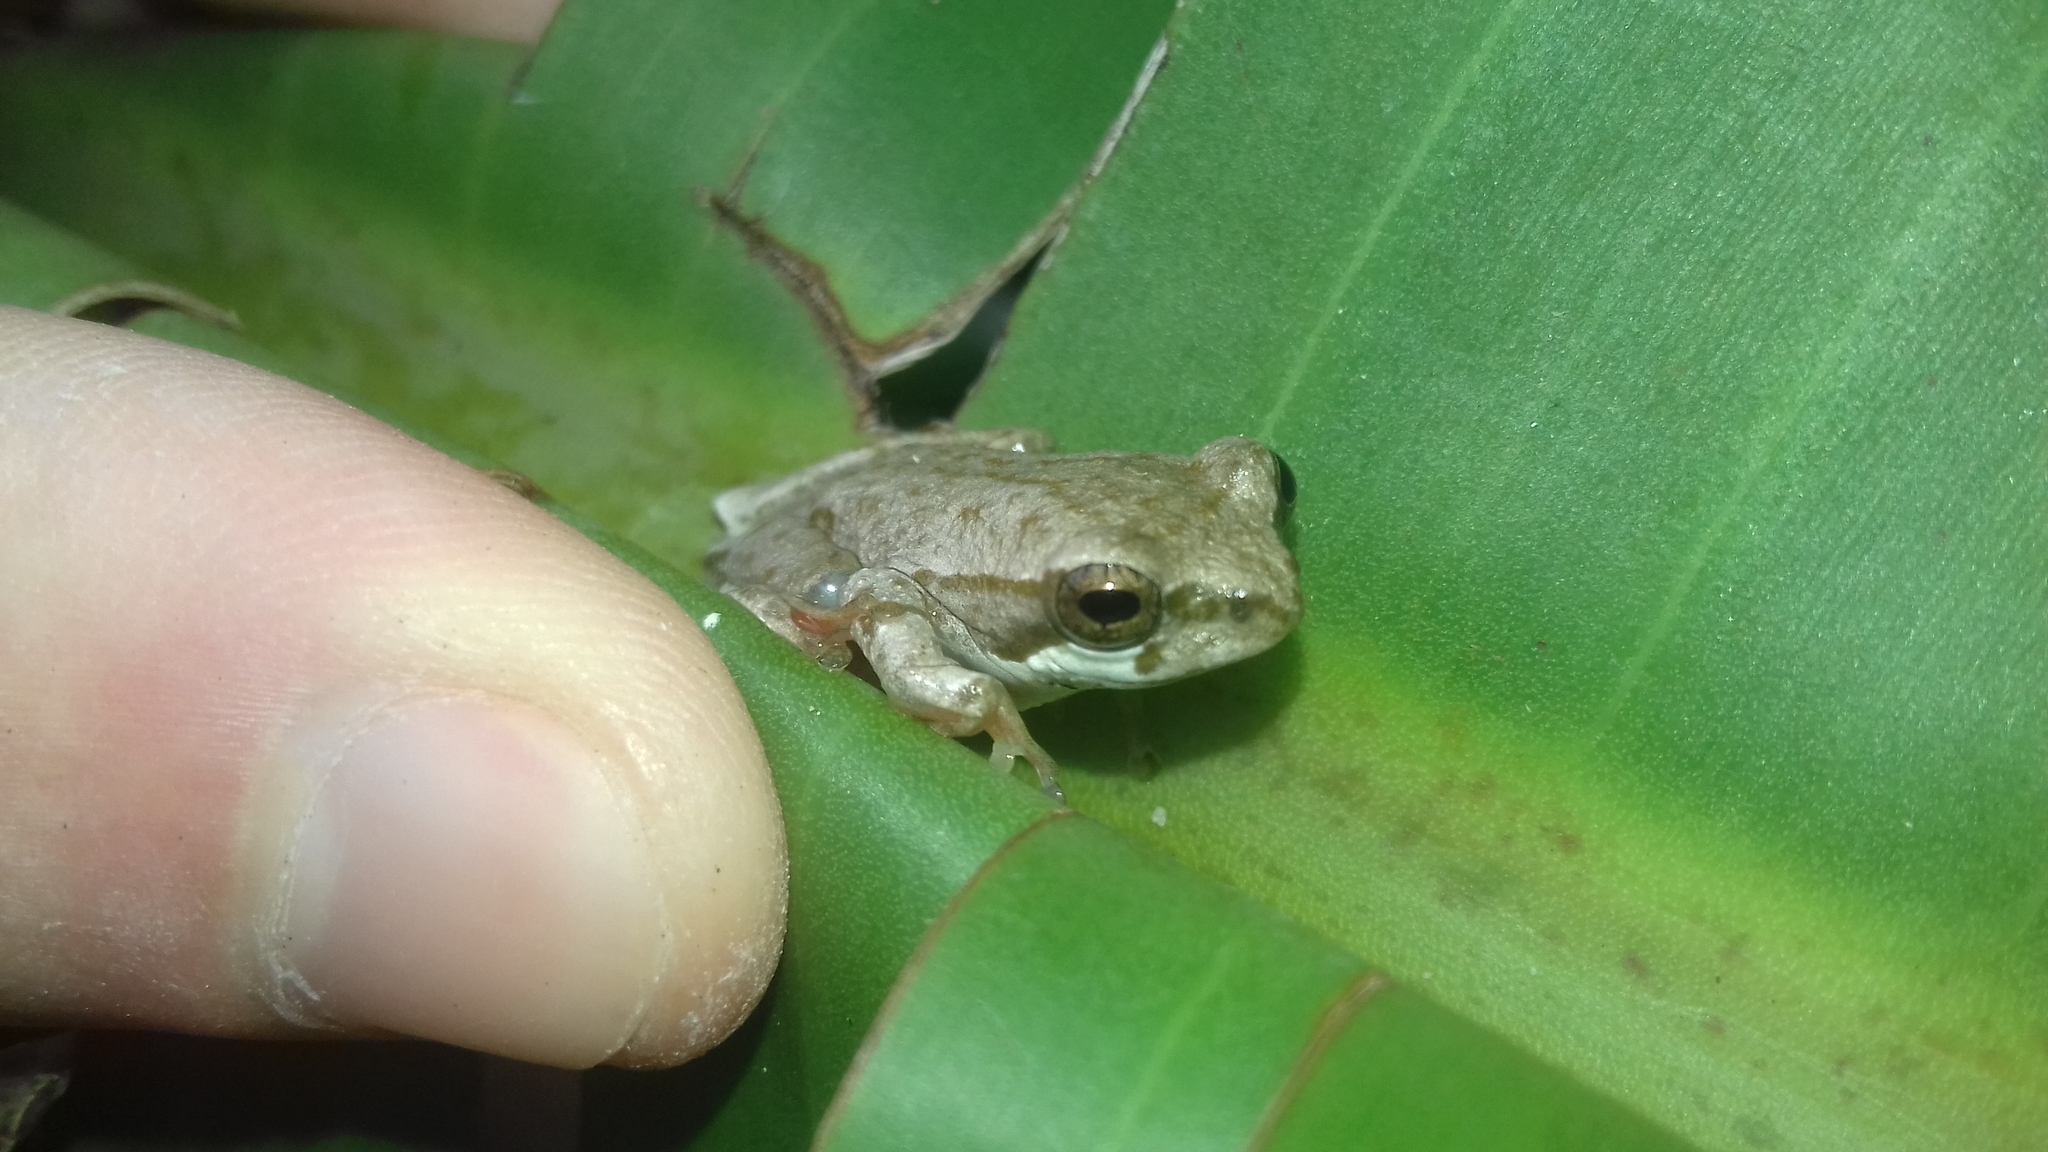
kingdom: Animalia
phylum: Chordata
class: Amphibia
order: Anura
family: Hyperoliidae
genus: Hyperolius
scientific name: Hyperolius marmoratus
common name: Painted reed frog
